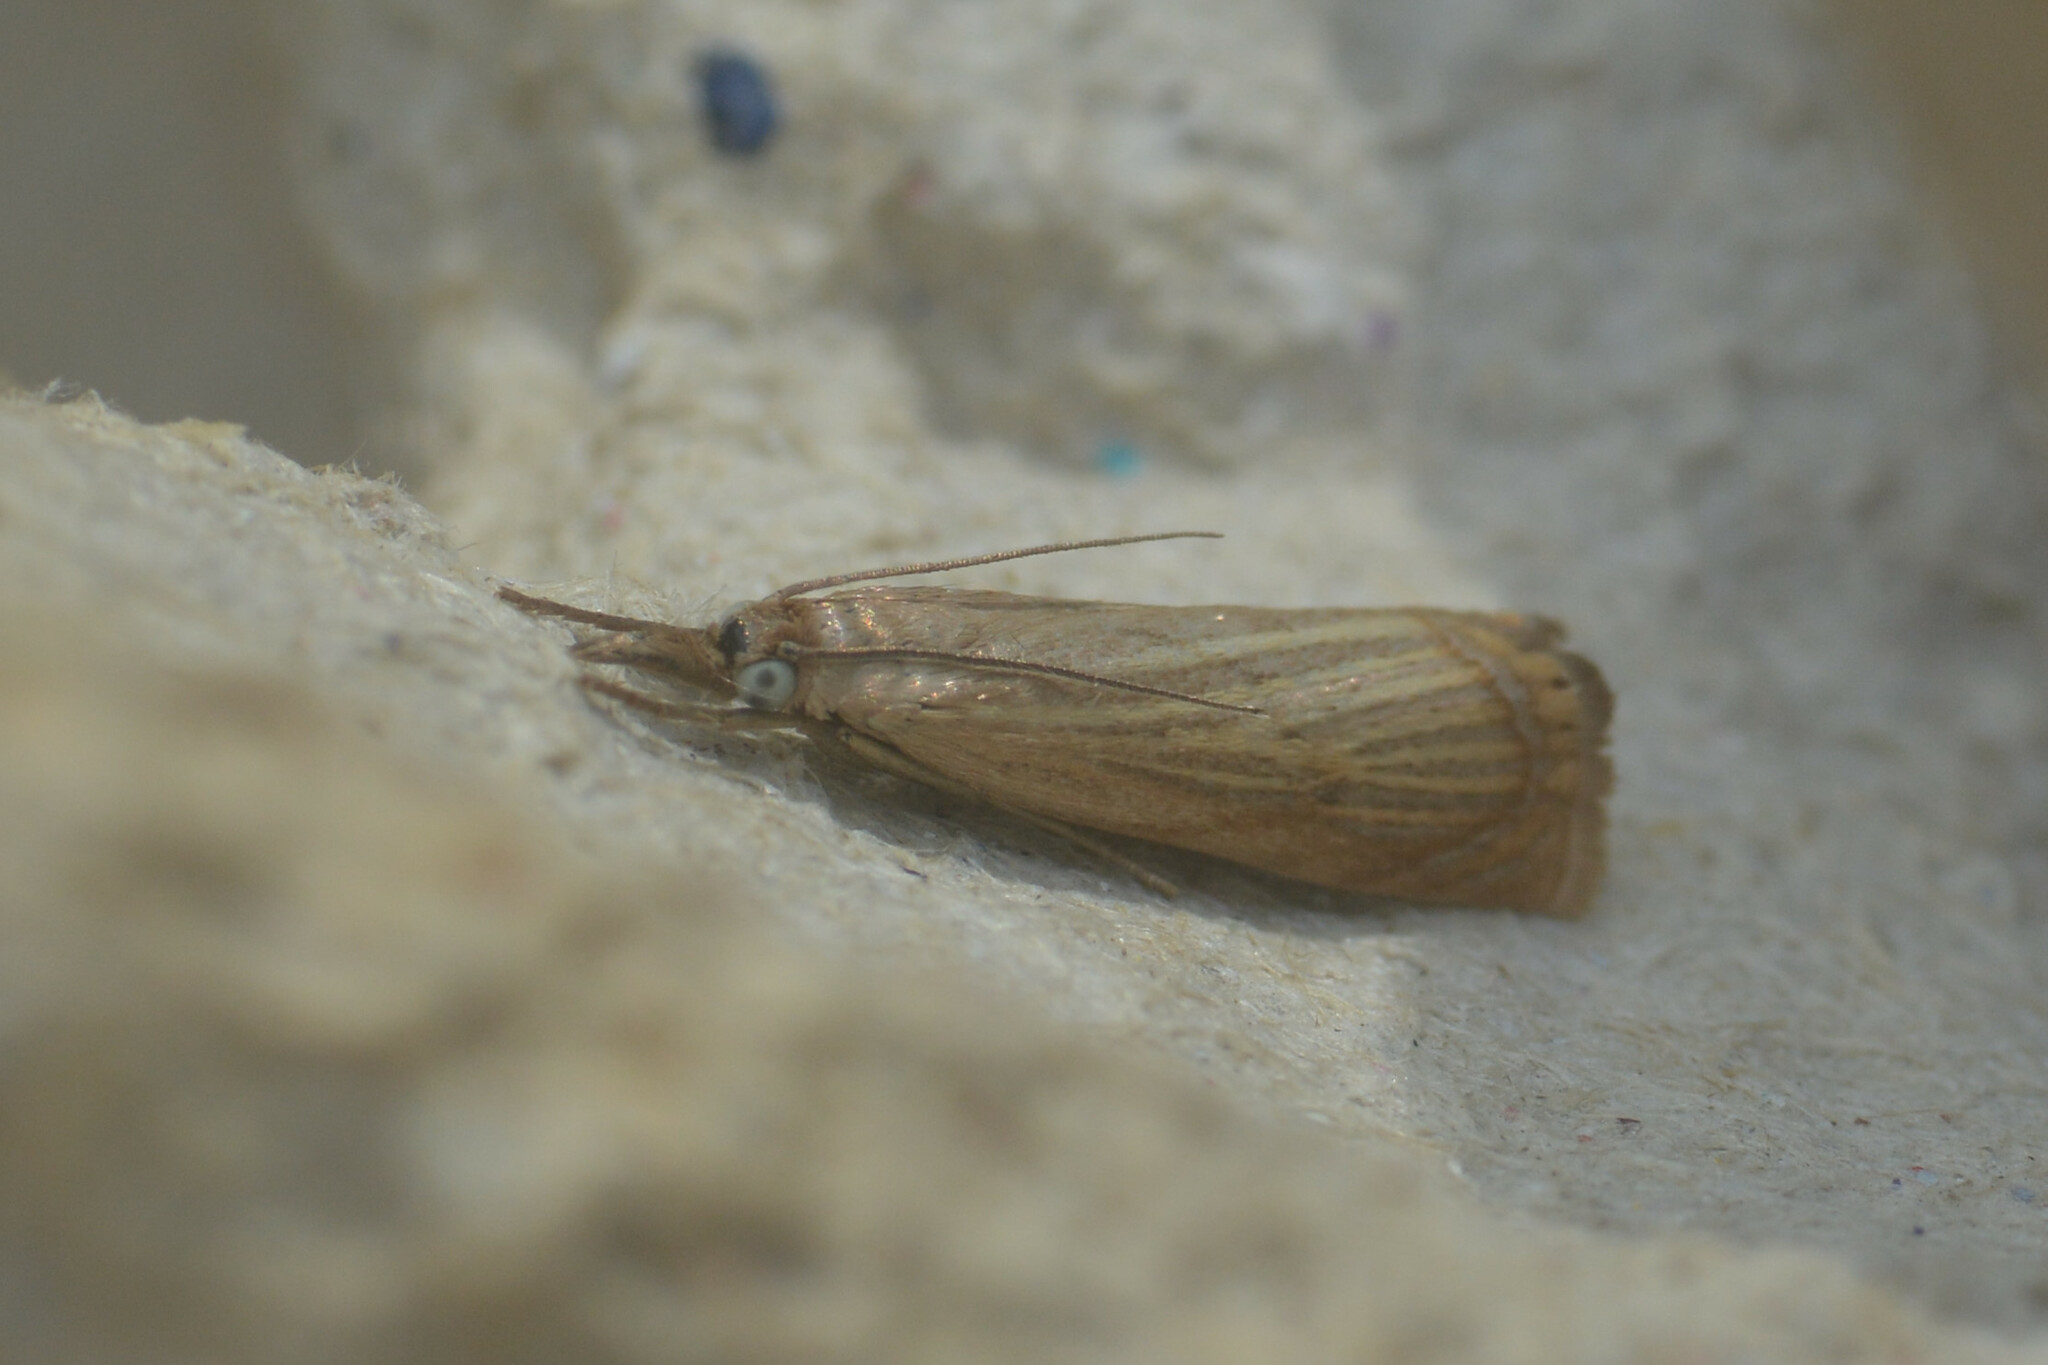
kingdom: Animalia
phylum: Arthropoda
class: Insecta
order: Lepidoptera
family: Crambidae
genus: Chrysoteuchia
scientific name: Chrysoteuchia culmella
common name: Garden grass-veneer
